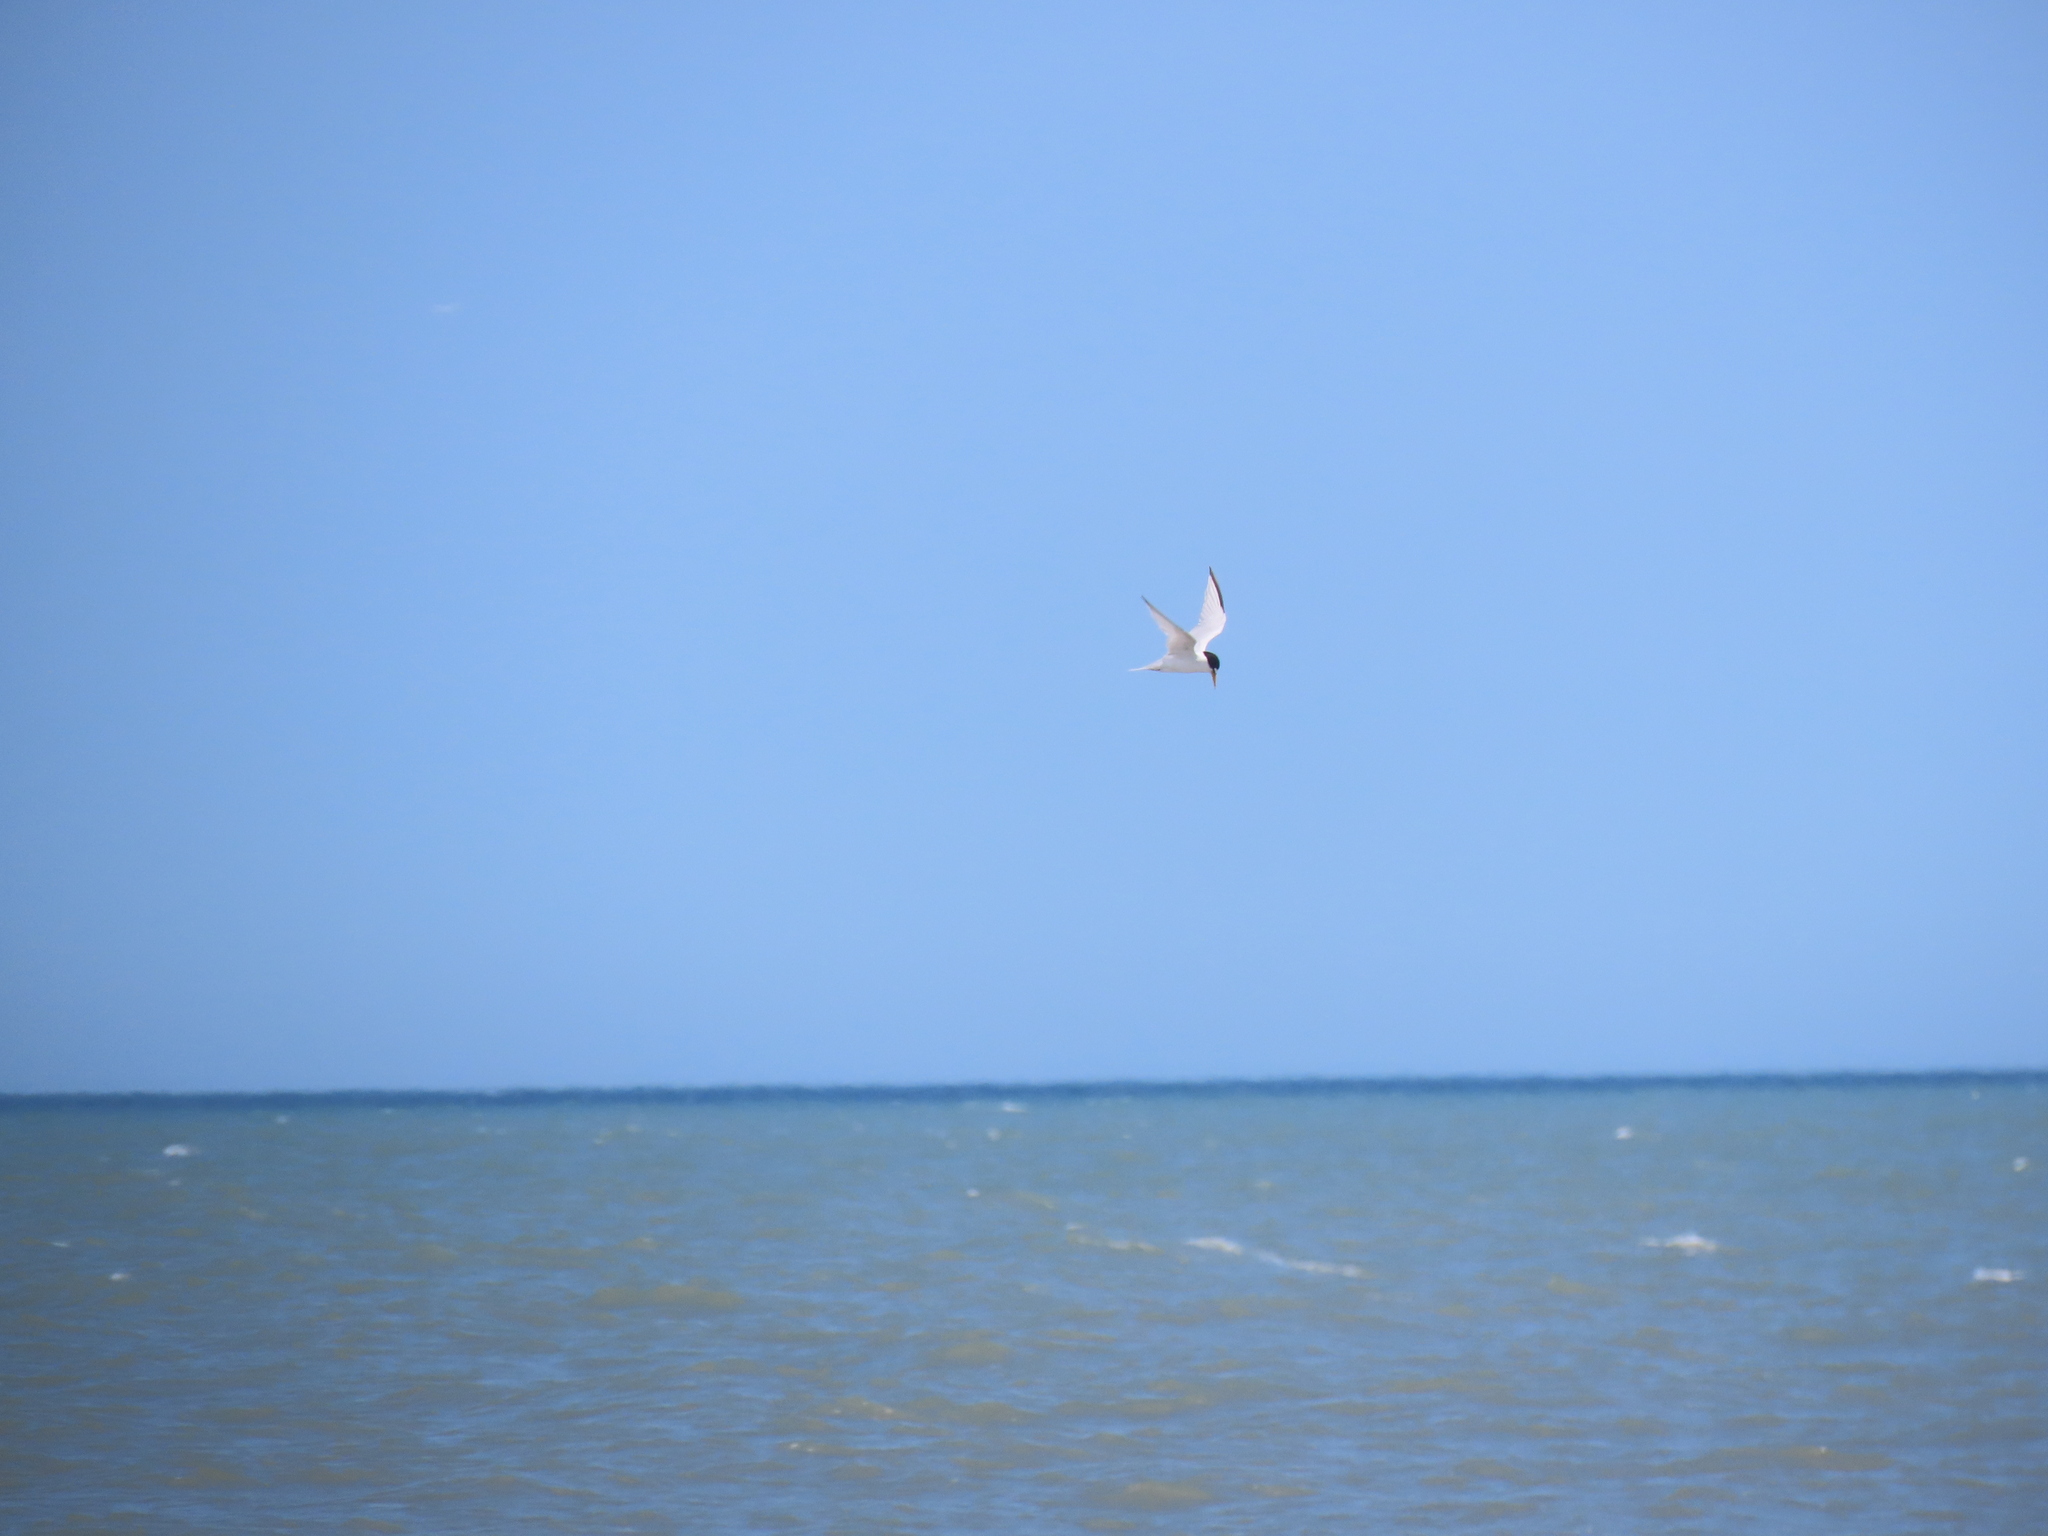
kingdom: Animalia
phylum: Chordata
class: Aves
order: Charadriiformes
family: Laridae
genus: Sternula
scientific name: Sternula antillarum
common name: Least tern
